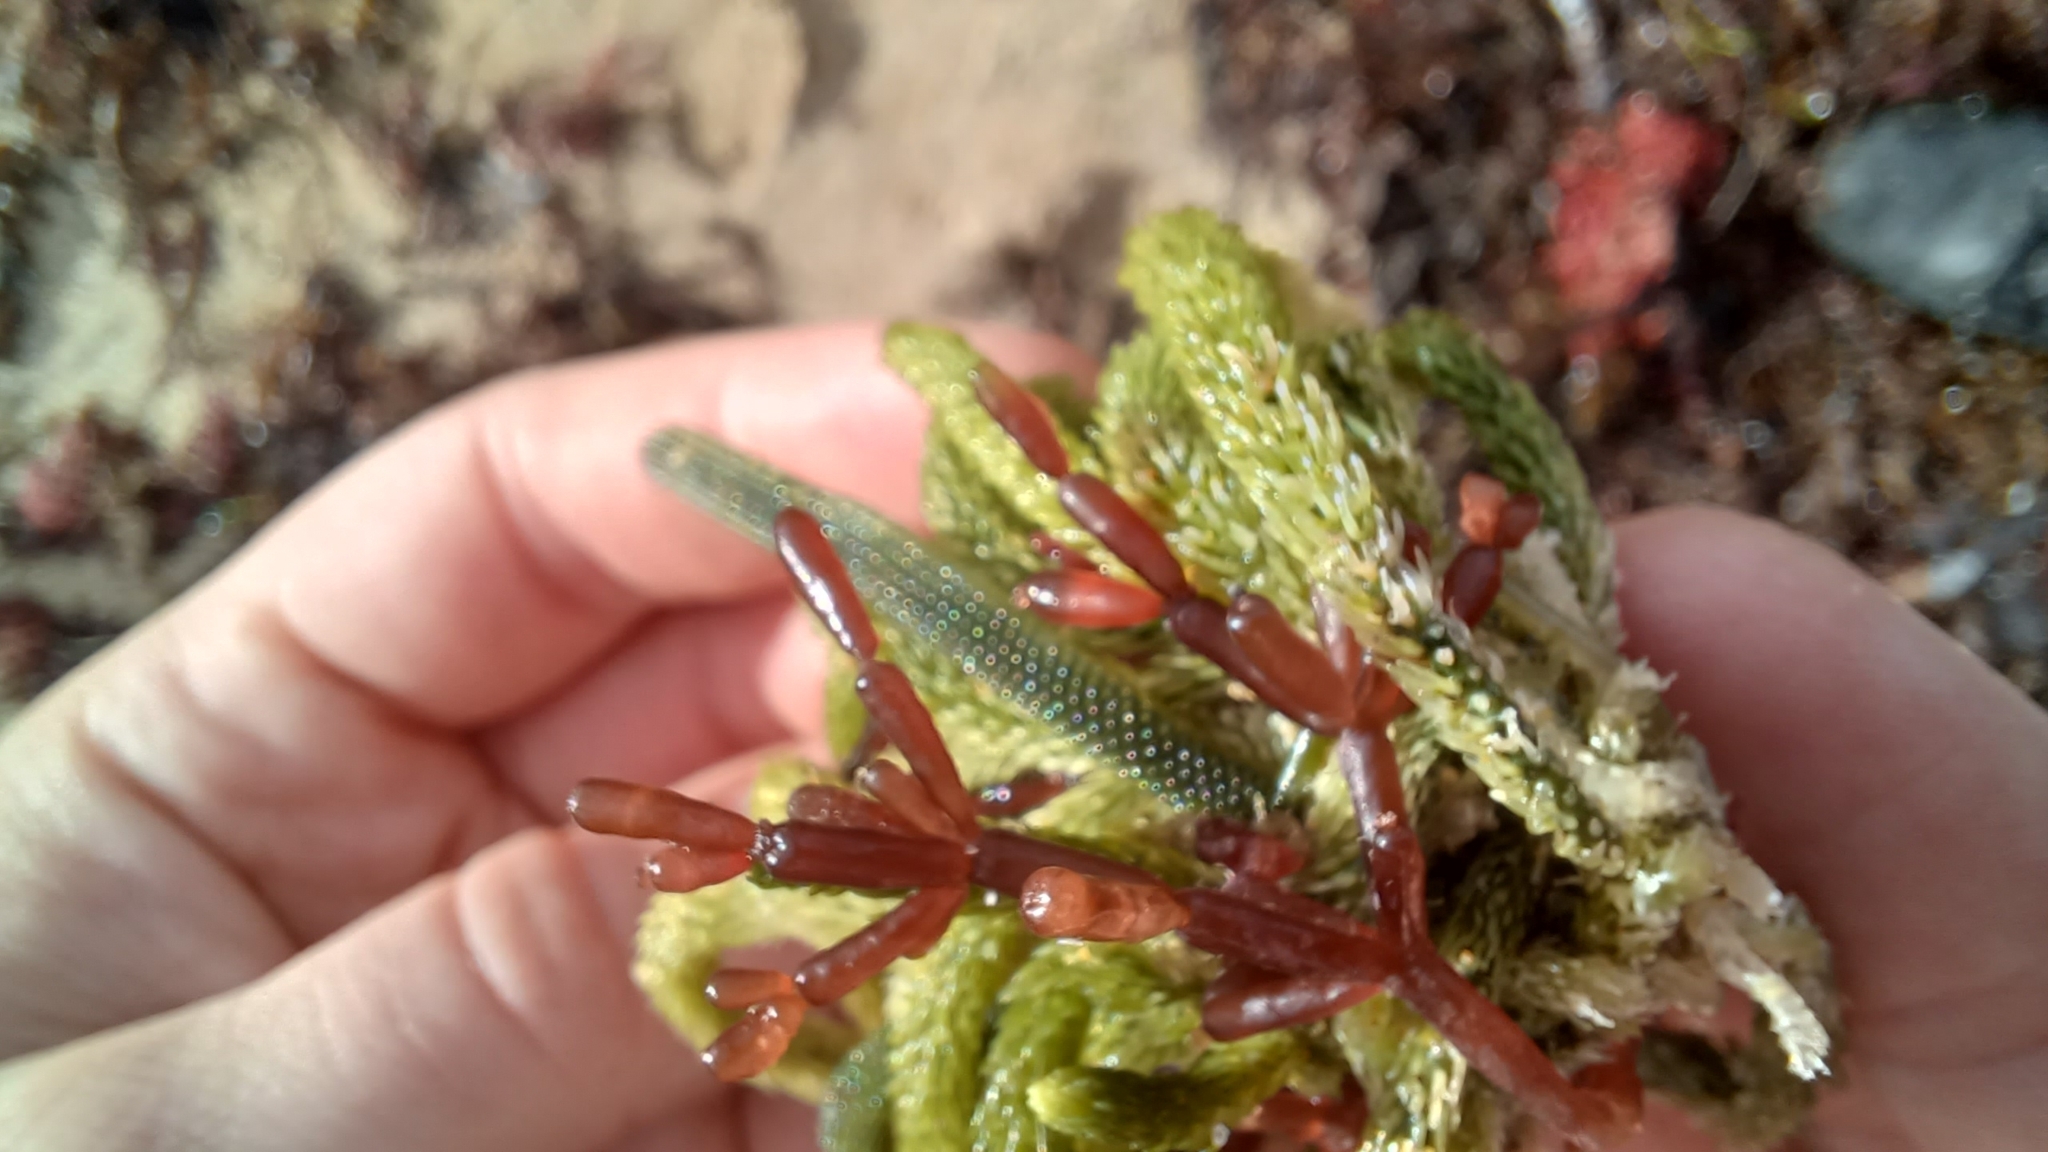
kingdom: Plantae
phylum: Rhodophyta
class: Florideophyceae
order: Rhodymeniales
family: Rhodymeniaceae
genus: Coelarthrum
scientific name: Coelarthrum opuntia
